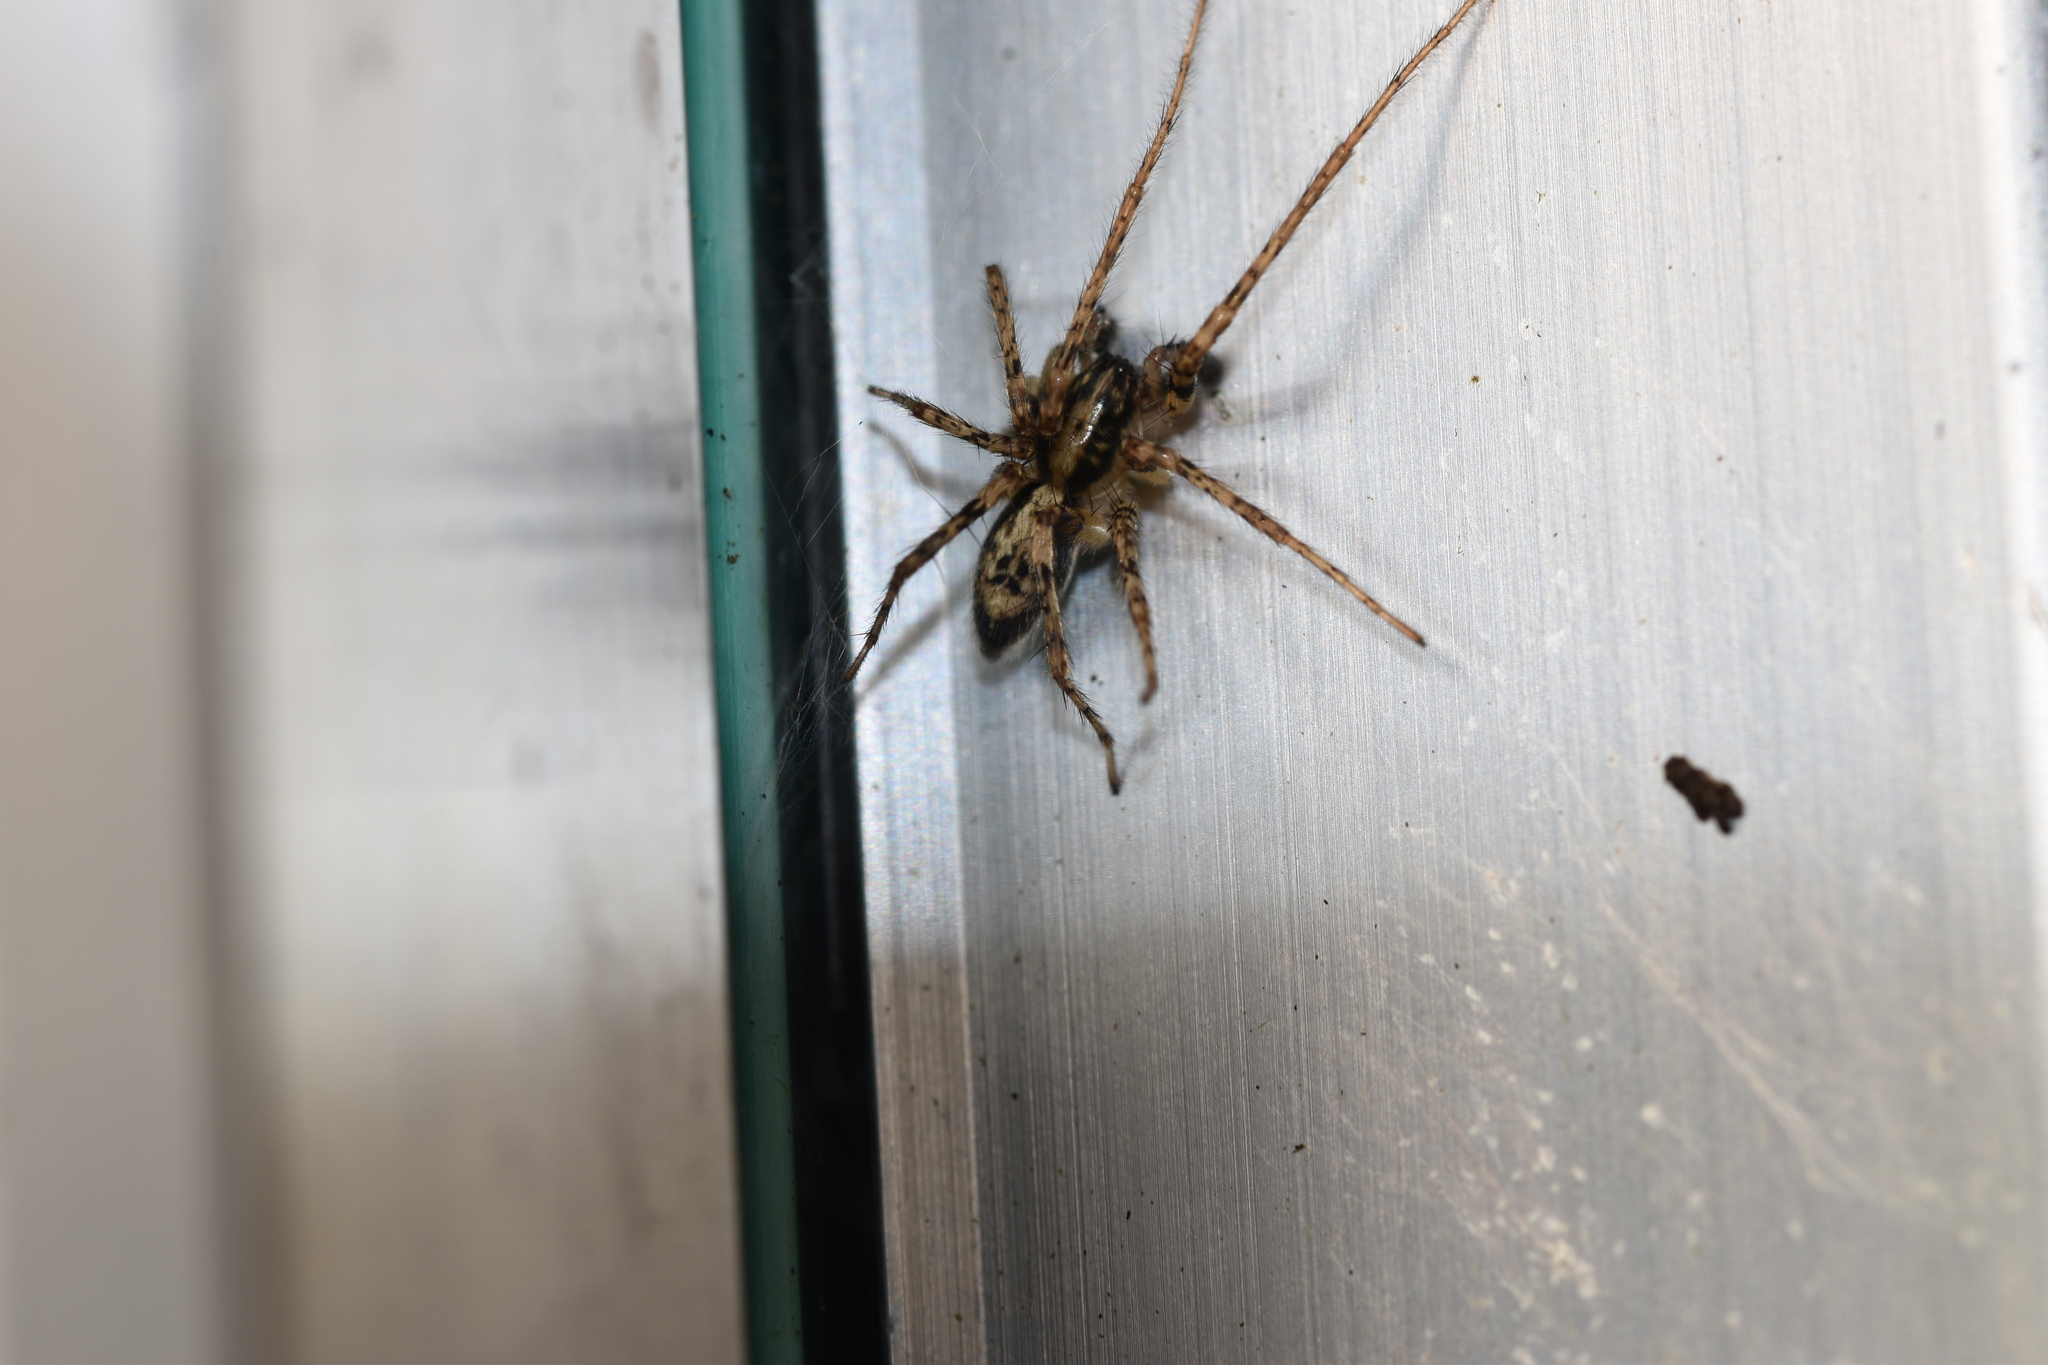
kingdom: Animalia
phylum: Arthropoda
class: Arachnida
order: Araneae
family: Anyphaenidae
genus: Anyphaena
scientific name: Anyphaena accentuata
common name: Buzzing spider
